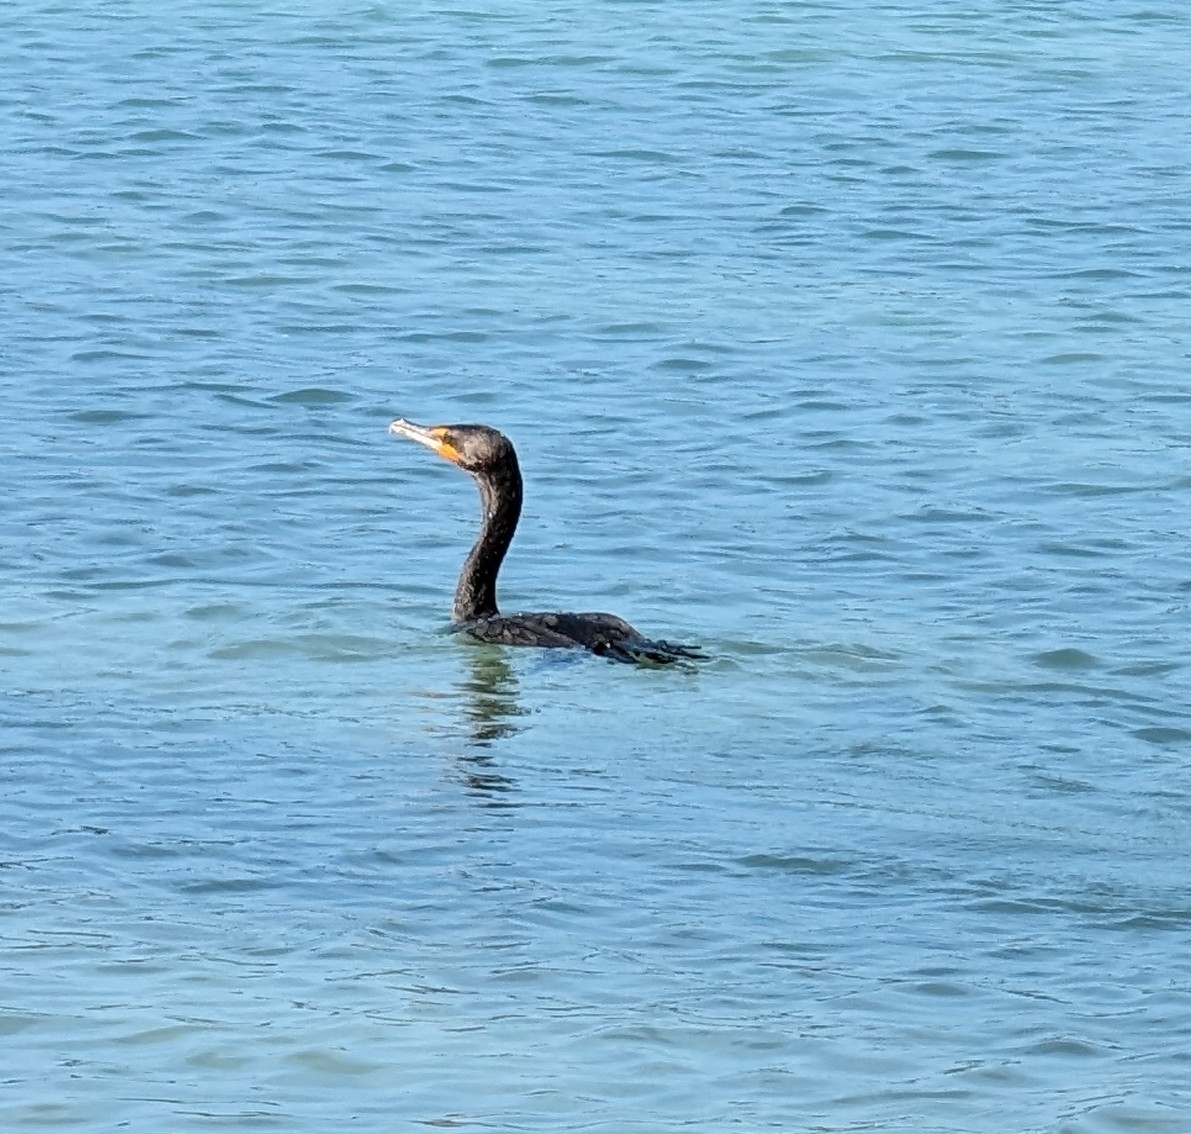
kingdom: Animalia
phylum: Chordata
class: Aves
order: Suliformes
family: Phalacrocoracidae
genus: Phalacrocorax
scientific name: Phalacrocorax auritus
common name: Double-crested cormorant
